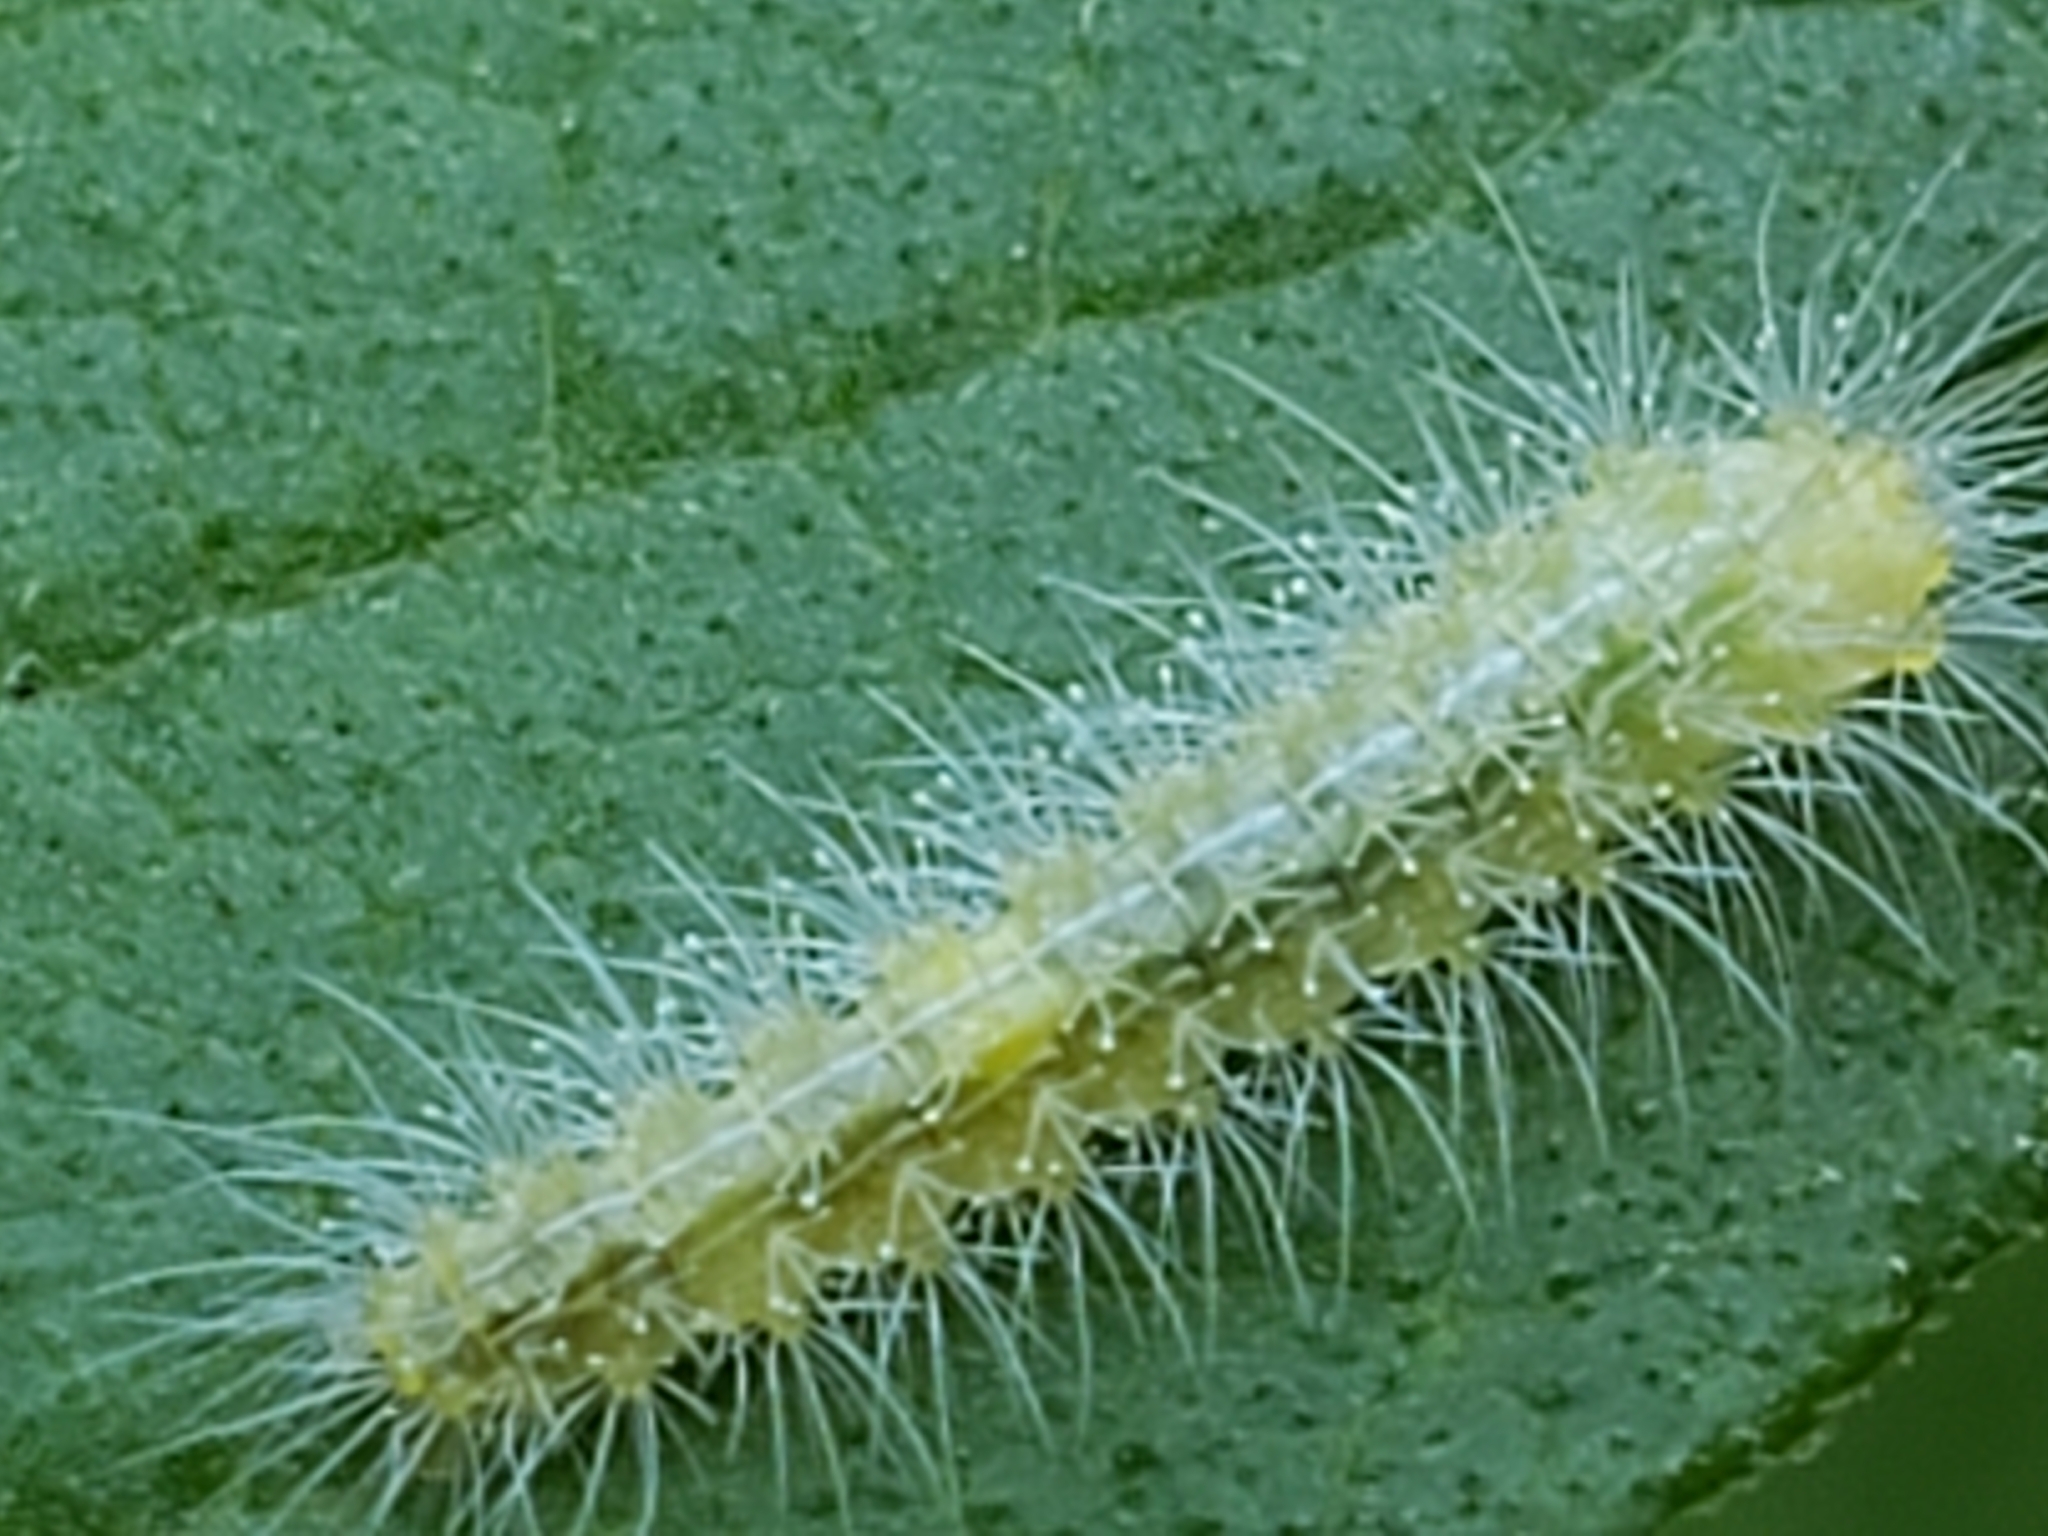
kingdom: Animalia
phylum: Arthropoda
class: Insecta
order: Lepidoptera
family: Pterophoridae
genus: Hellinsia
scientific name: Hellinsia paleaceus
